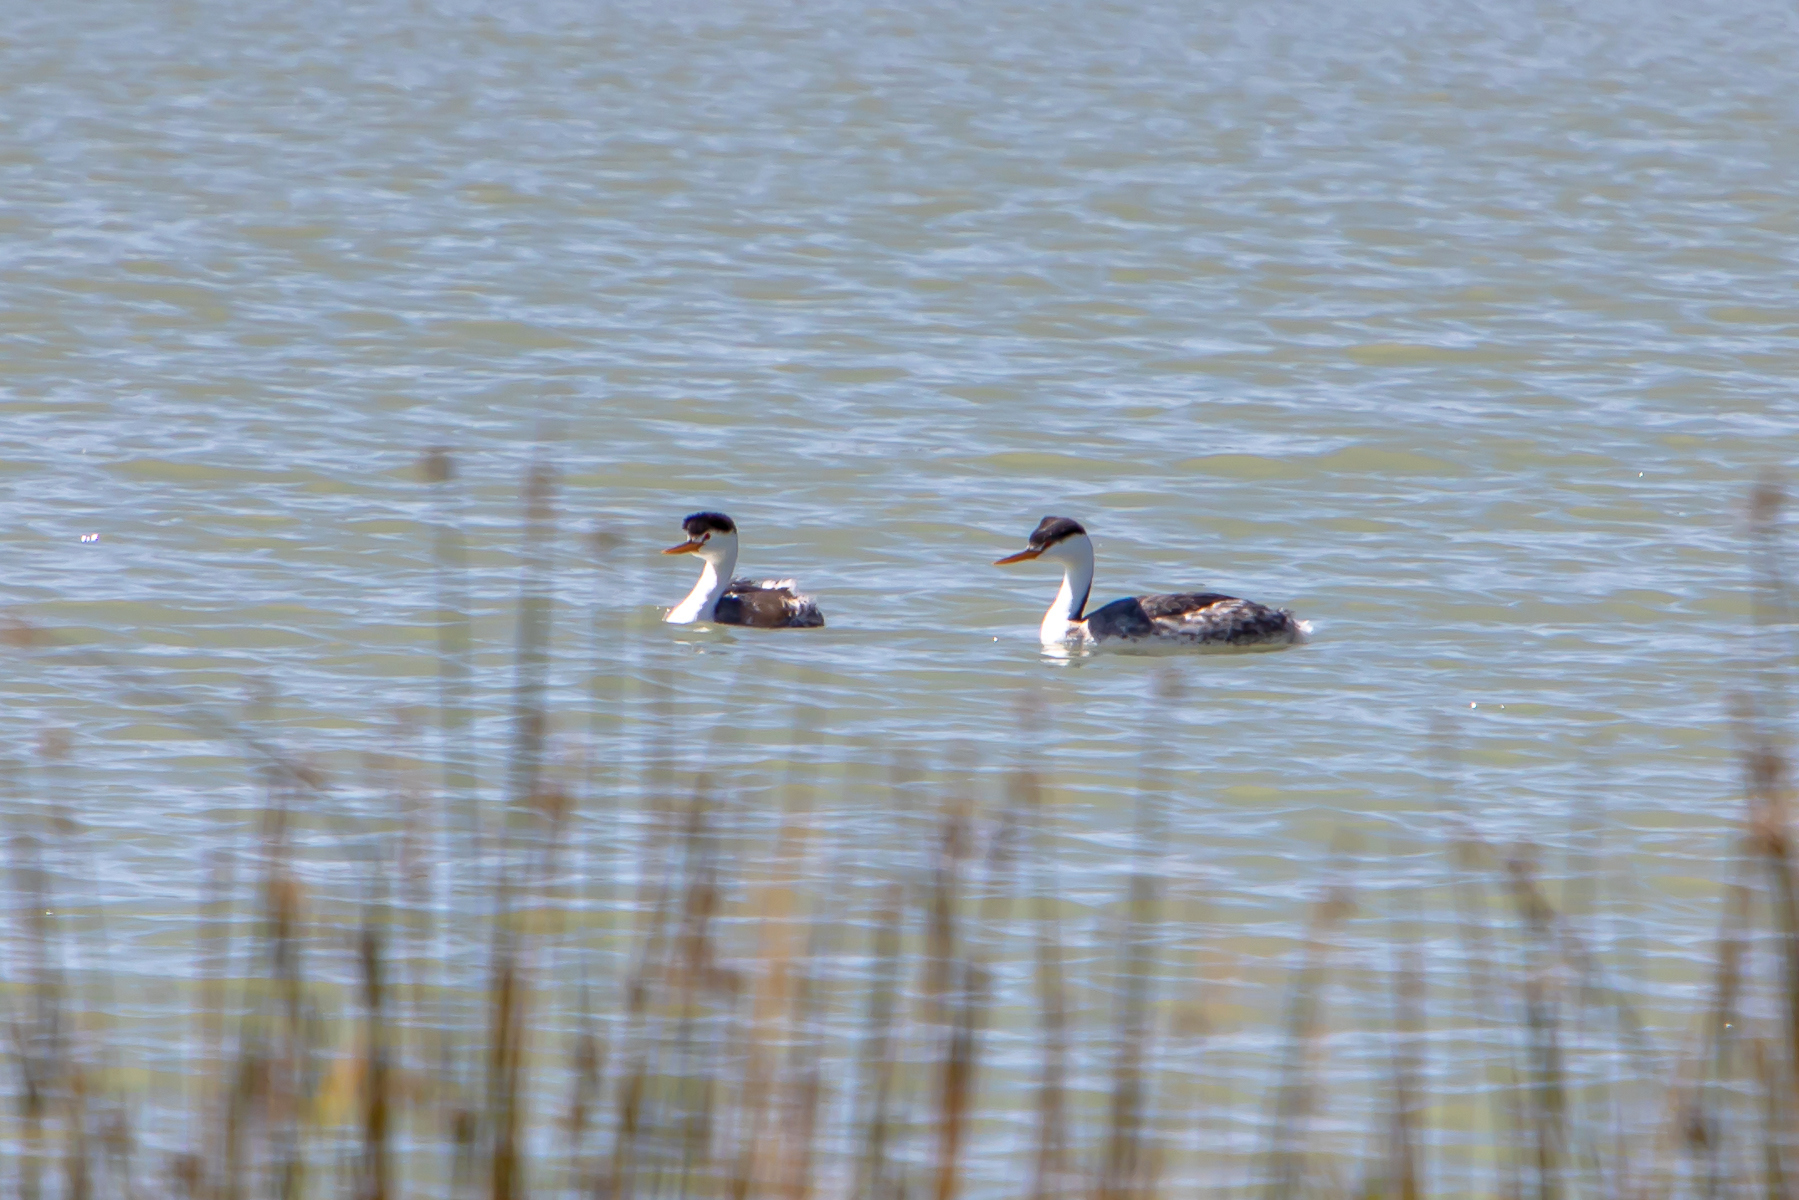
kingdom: Animalia
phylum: Chordata
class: Aves
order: Podicipediformes
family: Podicipedidae
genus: Aechmophorus
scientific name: Aechmophorus clarkii
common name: Clark's grebe
